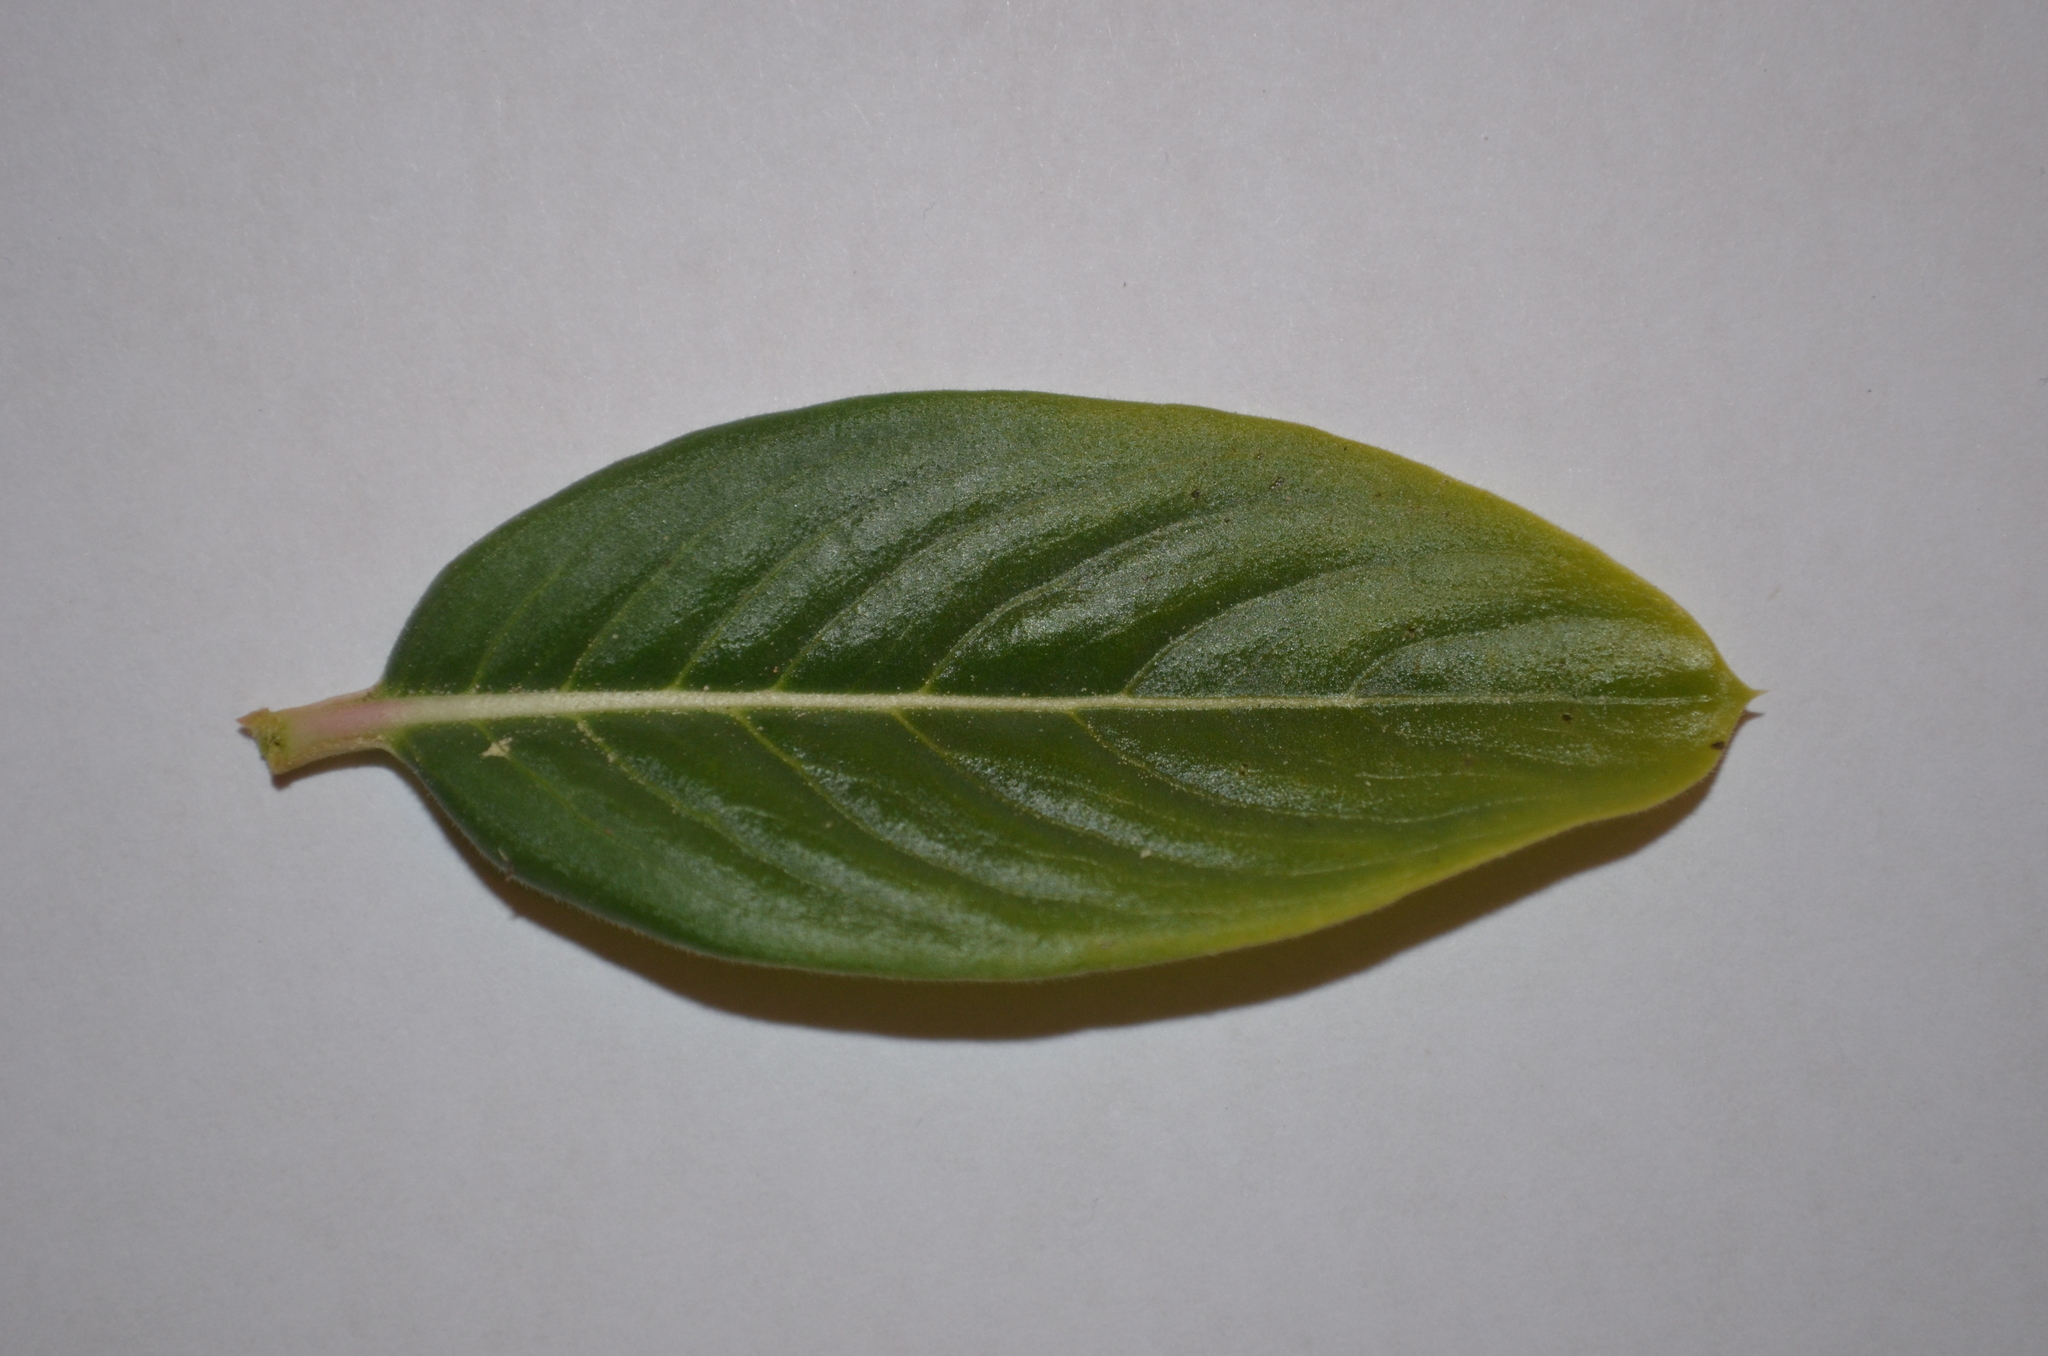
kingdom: Plantae
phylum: Tracheophyta
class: Magnoliopsida
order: Gentianales
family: Apocynaceae
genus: Catharanthus
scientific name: Catharanthus roseus
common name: Madagascar periwinkle
